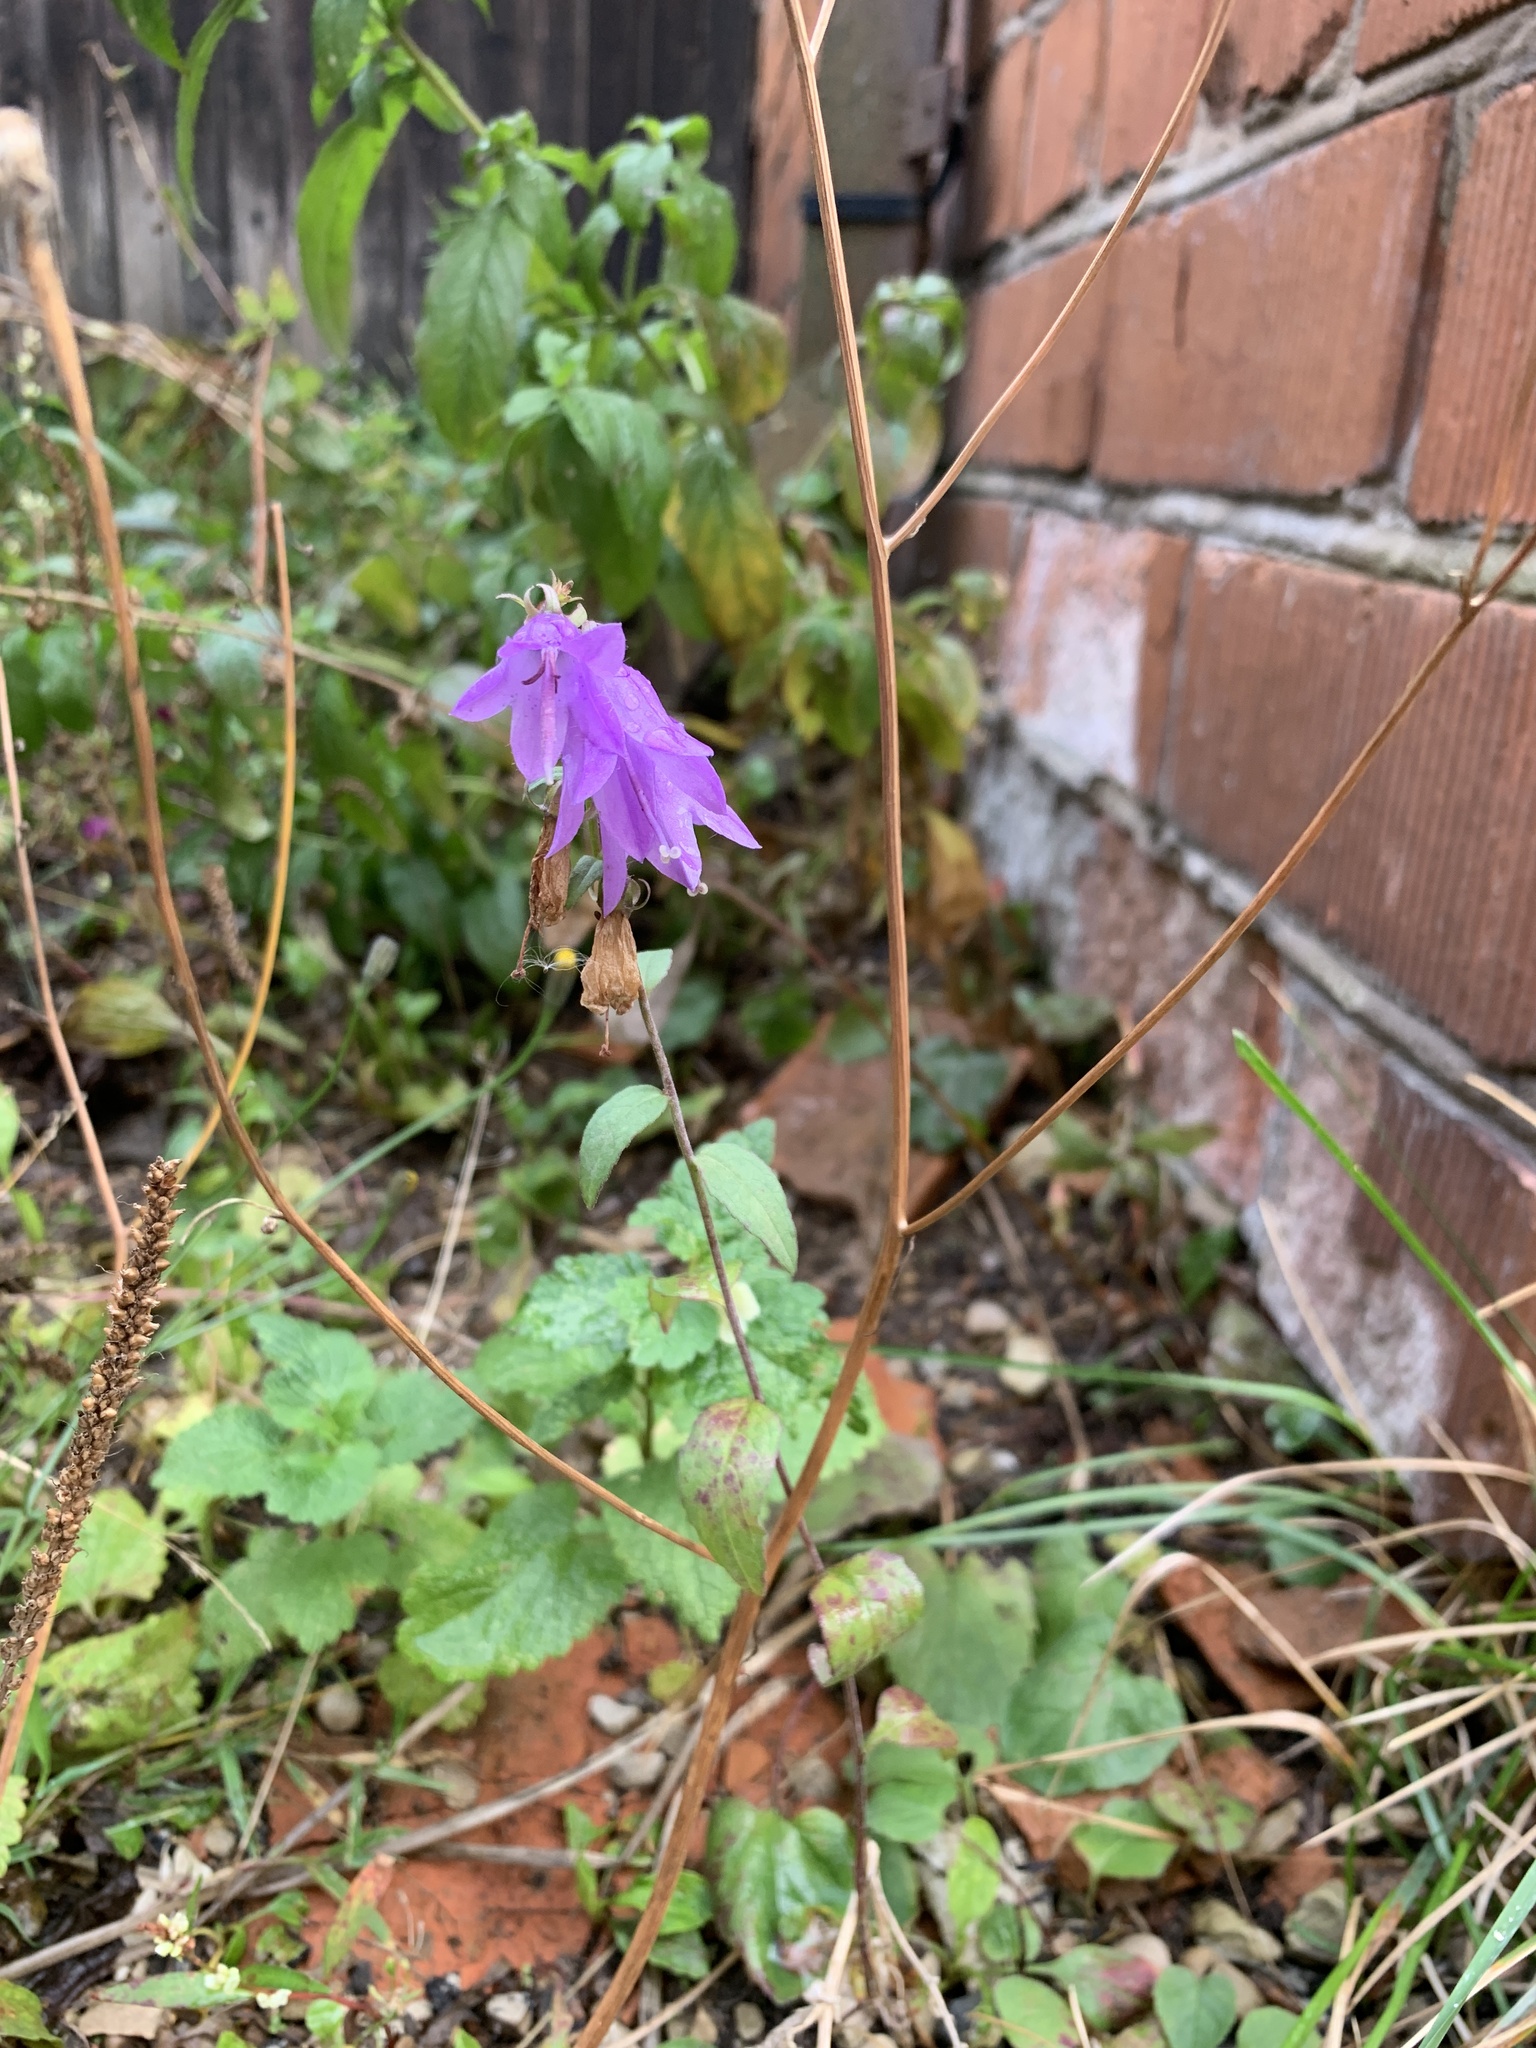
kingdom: Plantae
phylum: Tracheophyta
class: Magnoliopsida
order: Asterales
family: Campanulaceae
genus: Campanula
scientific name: Campanula rapunculoides
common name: Creeping bellflower
